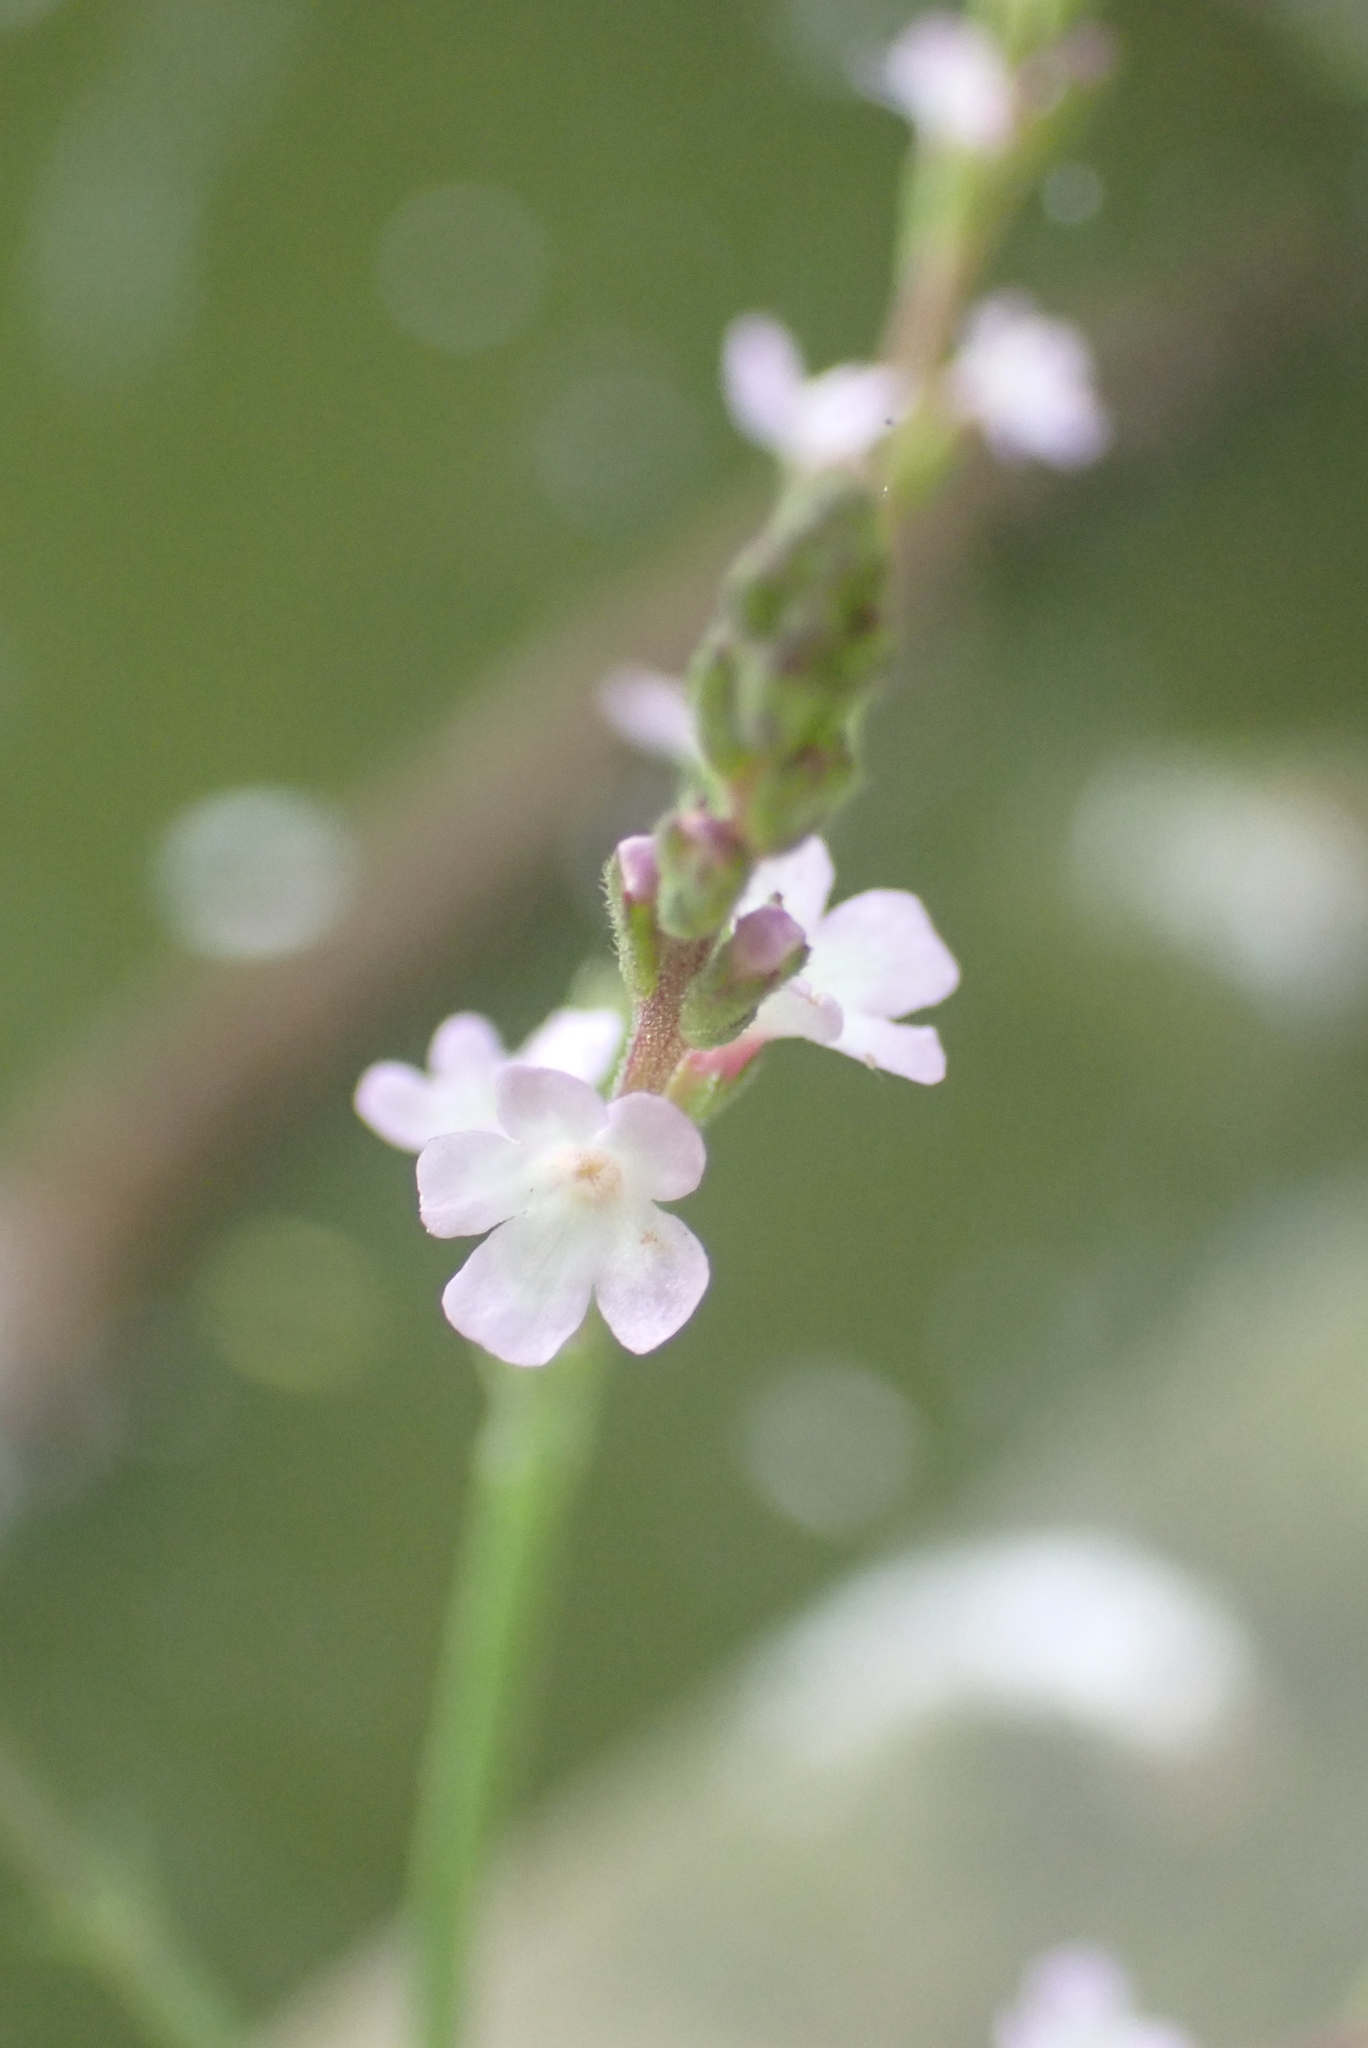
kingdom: Plantae
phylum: Tracheophyta
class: Magnoliopsida
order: Lamiales
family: Verbenaceae
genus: Verbena
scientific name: Verbena officinalis
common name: Vervain
